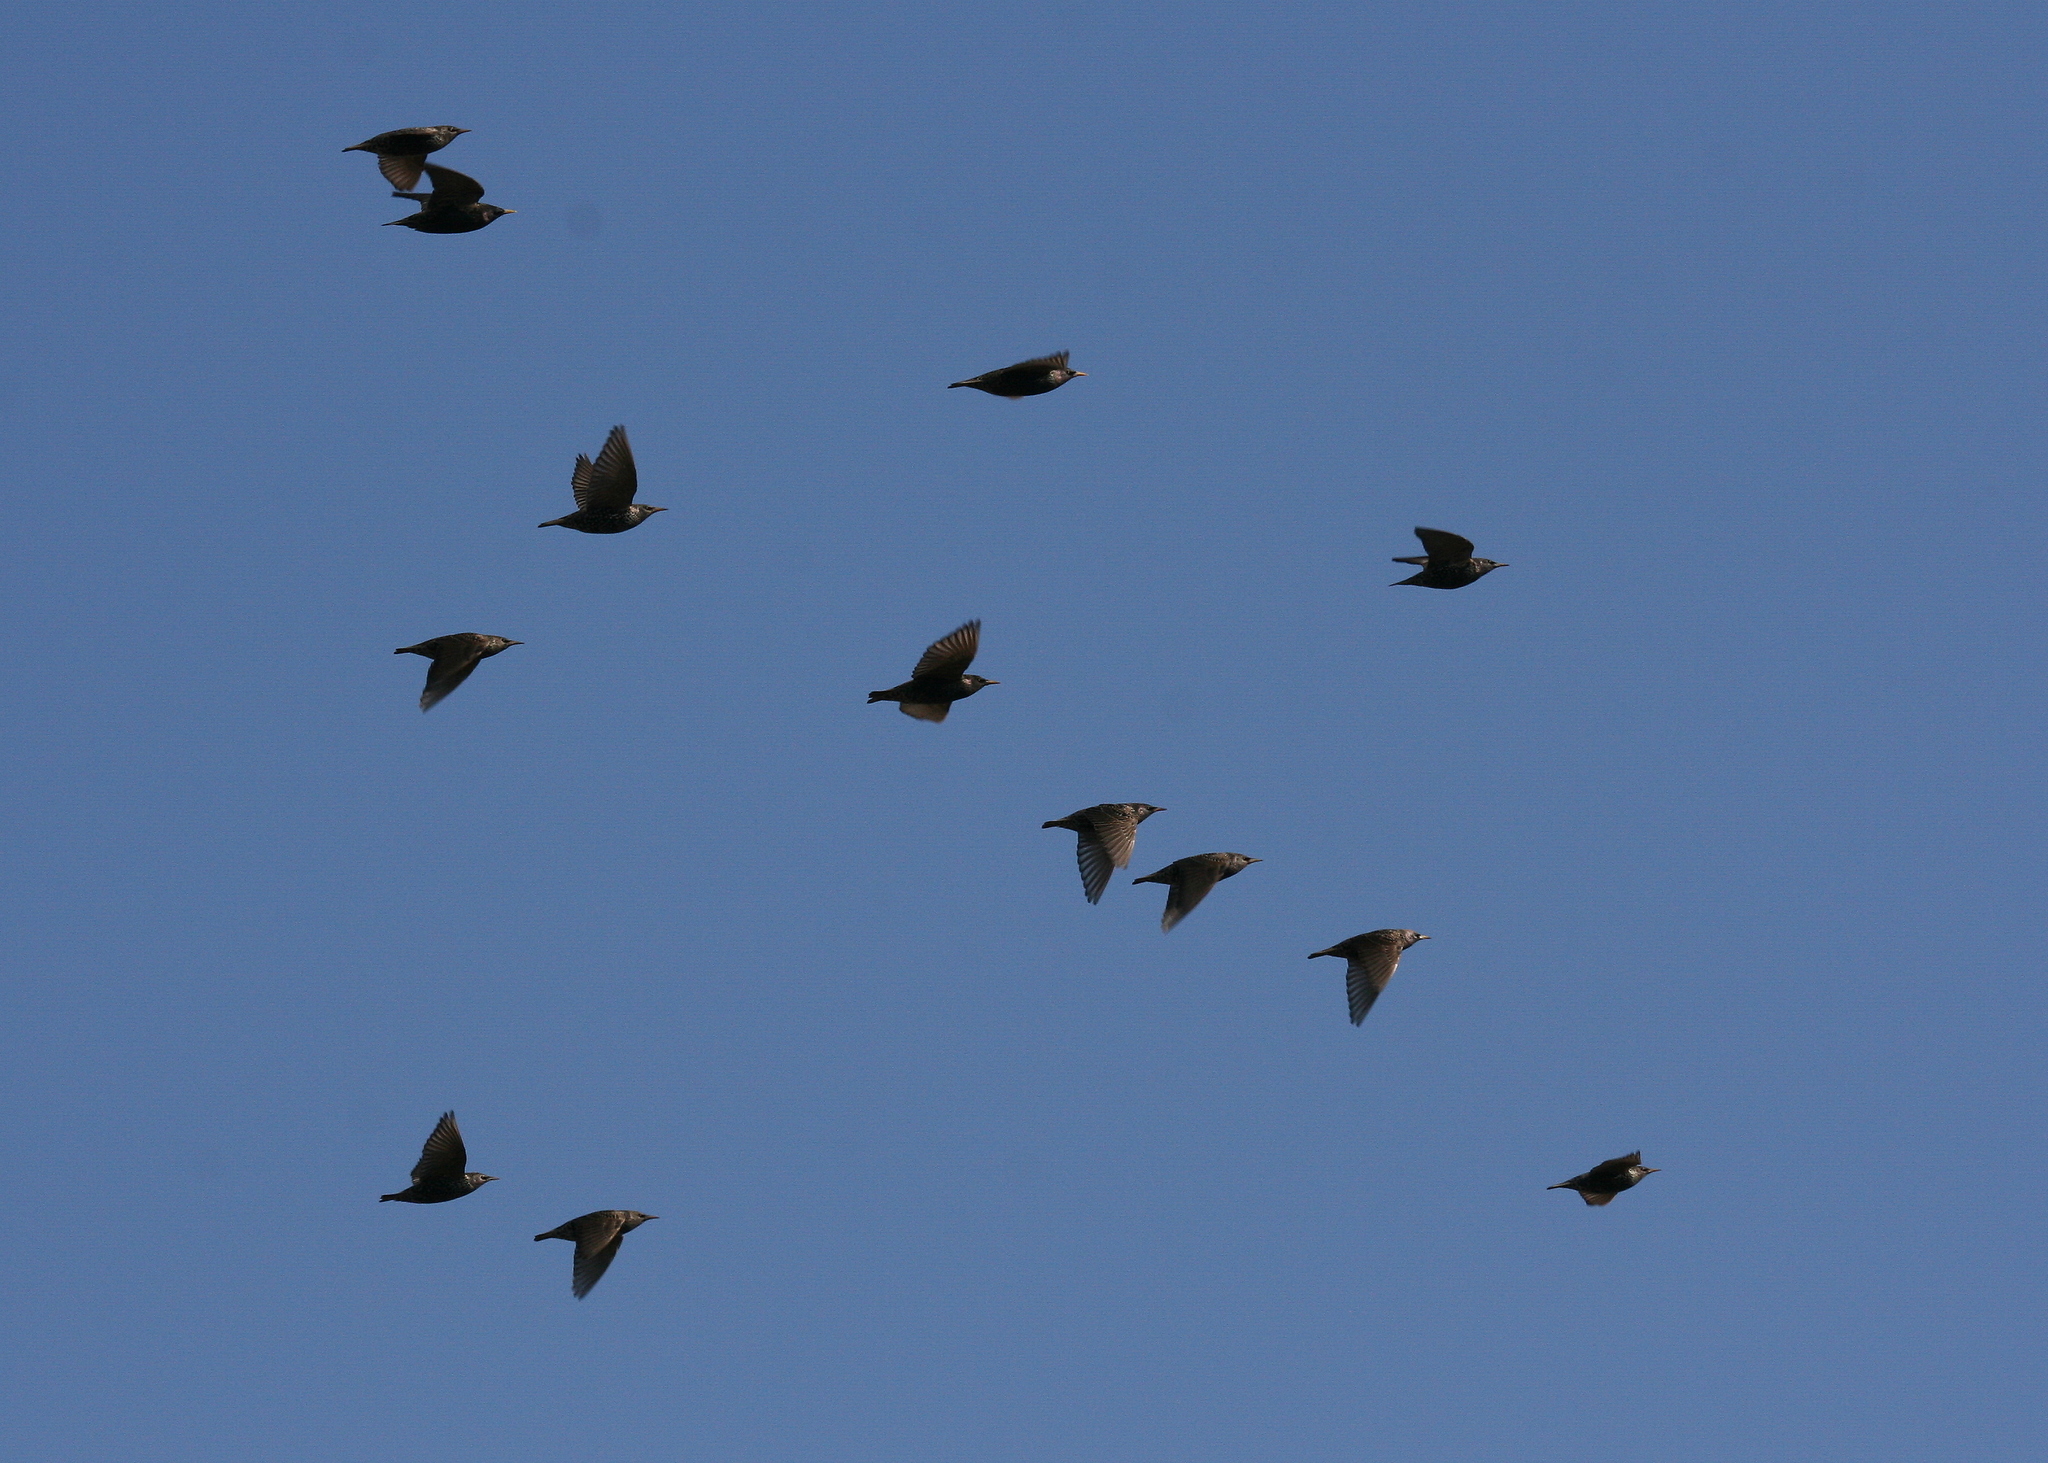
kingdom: Animalia
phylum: Chordata
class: Aves
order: Passeriformes
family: Sturnidae
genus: Sturnus
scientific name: Sturnus vulgaris
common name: Common starling
